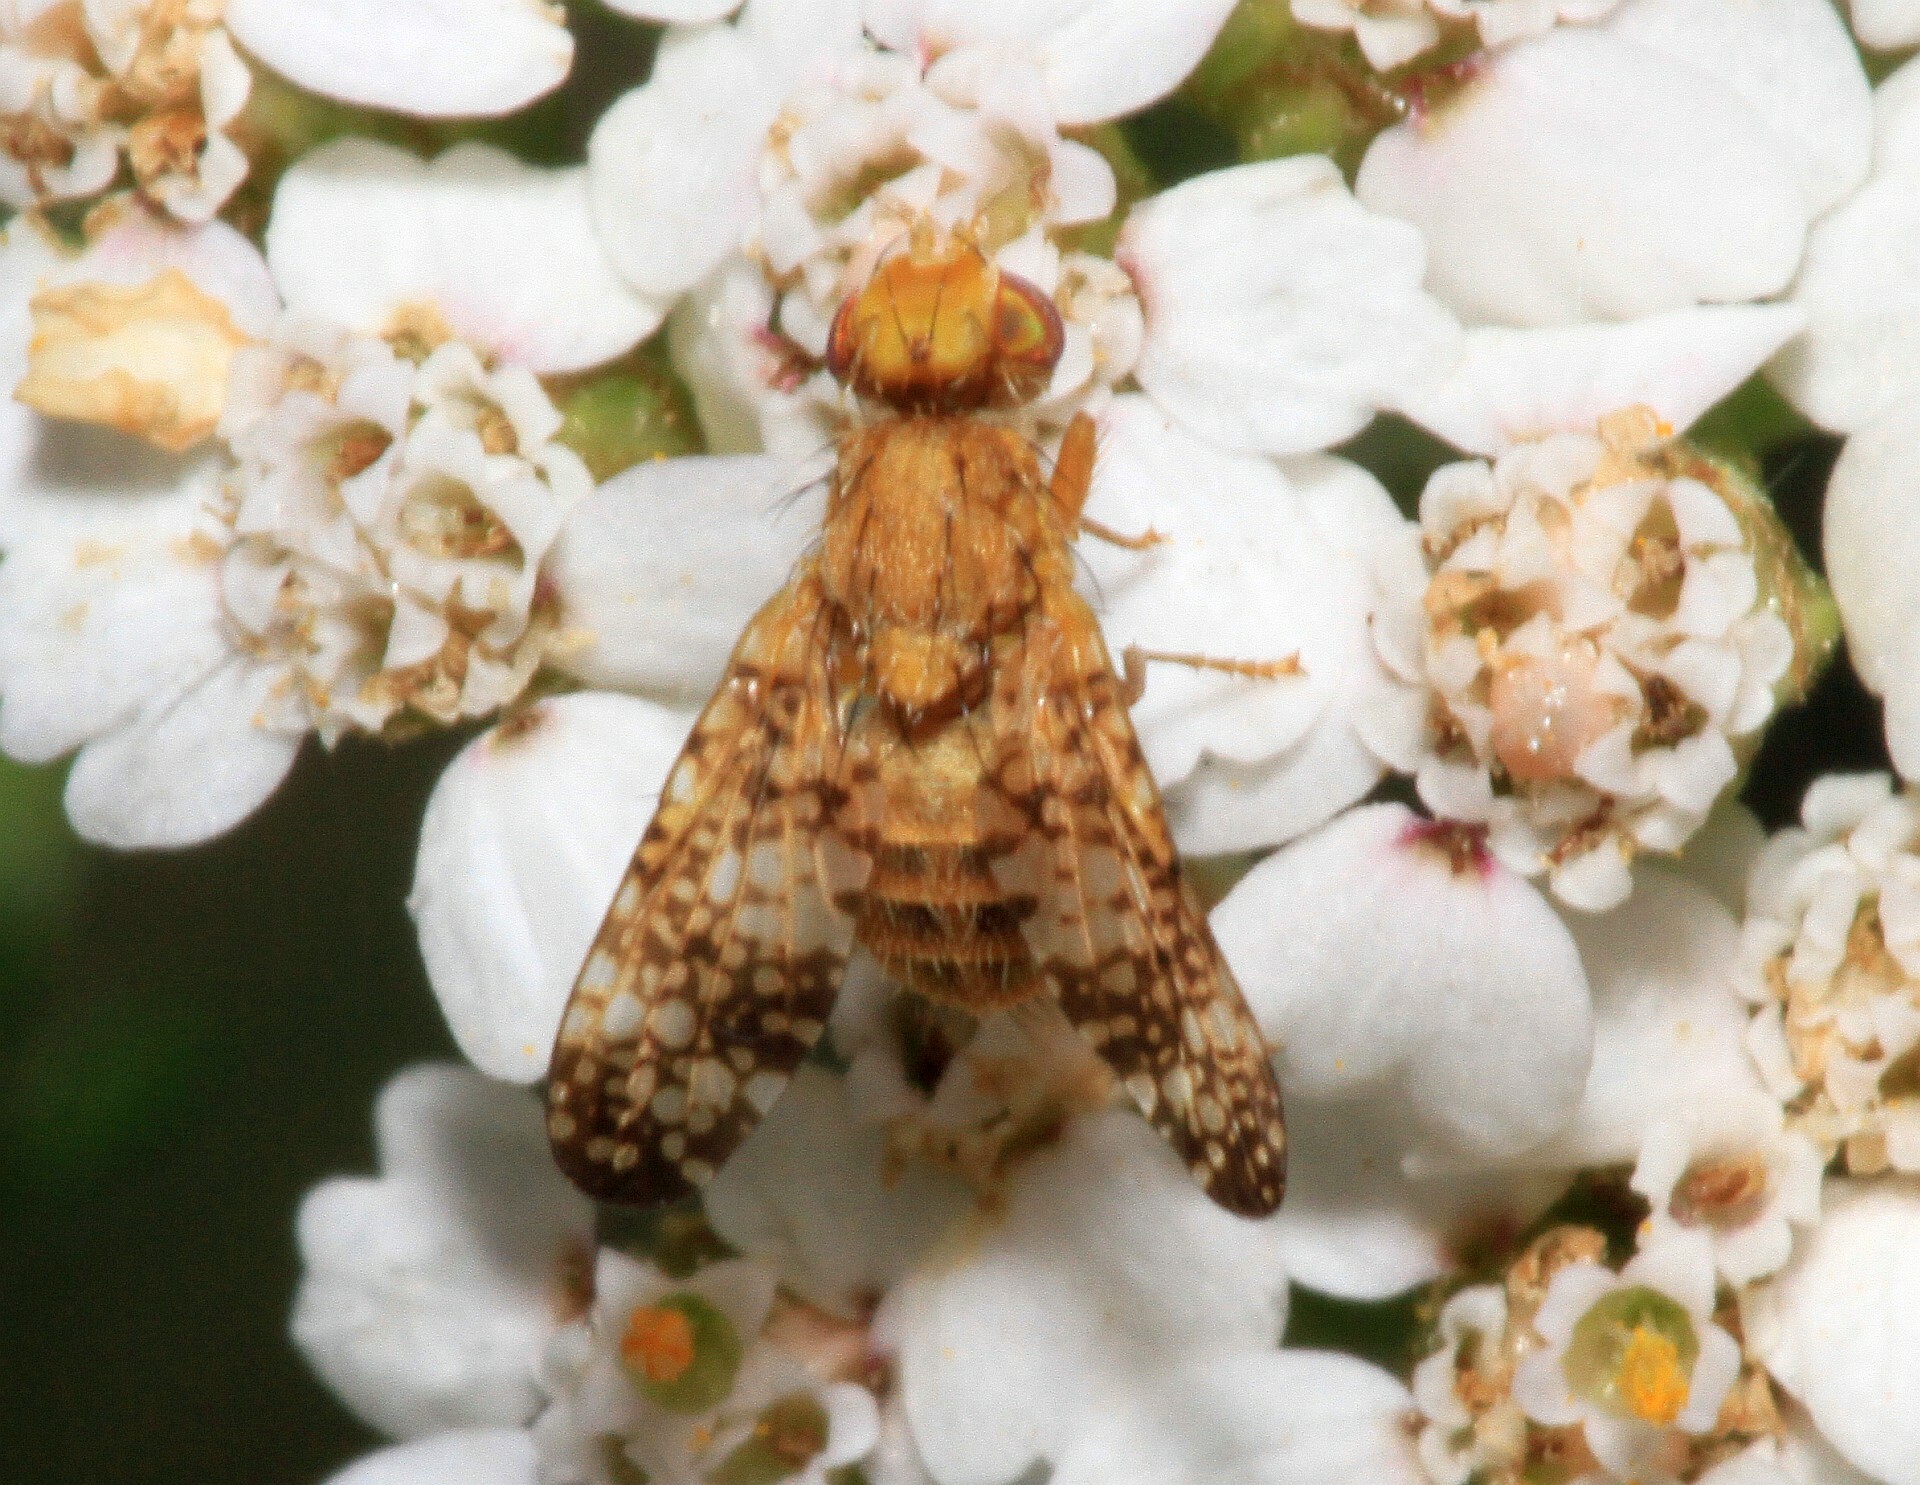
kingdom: Animalia
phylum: Arthropoda
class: Insecta
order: Diptera
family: Tephritidae
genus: Oxyna
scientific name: Oxyna flavipennis
